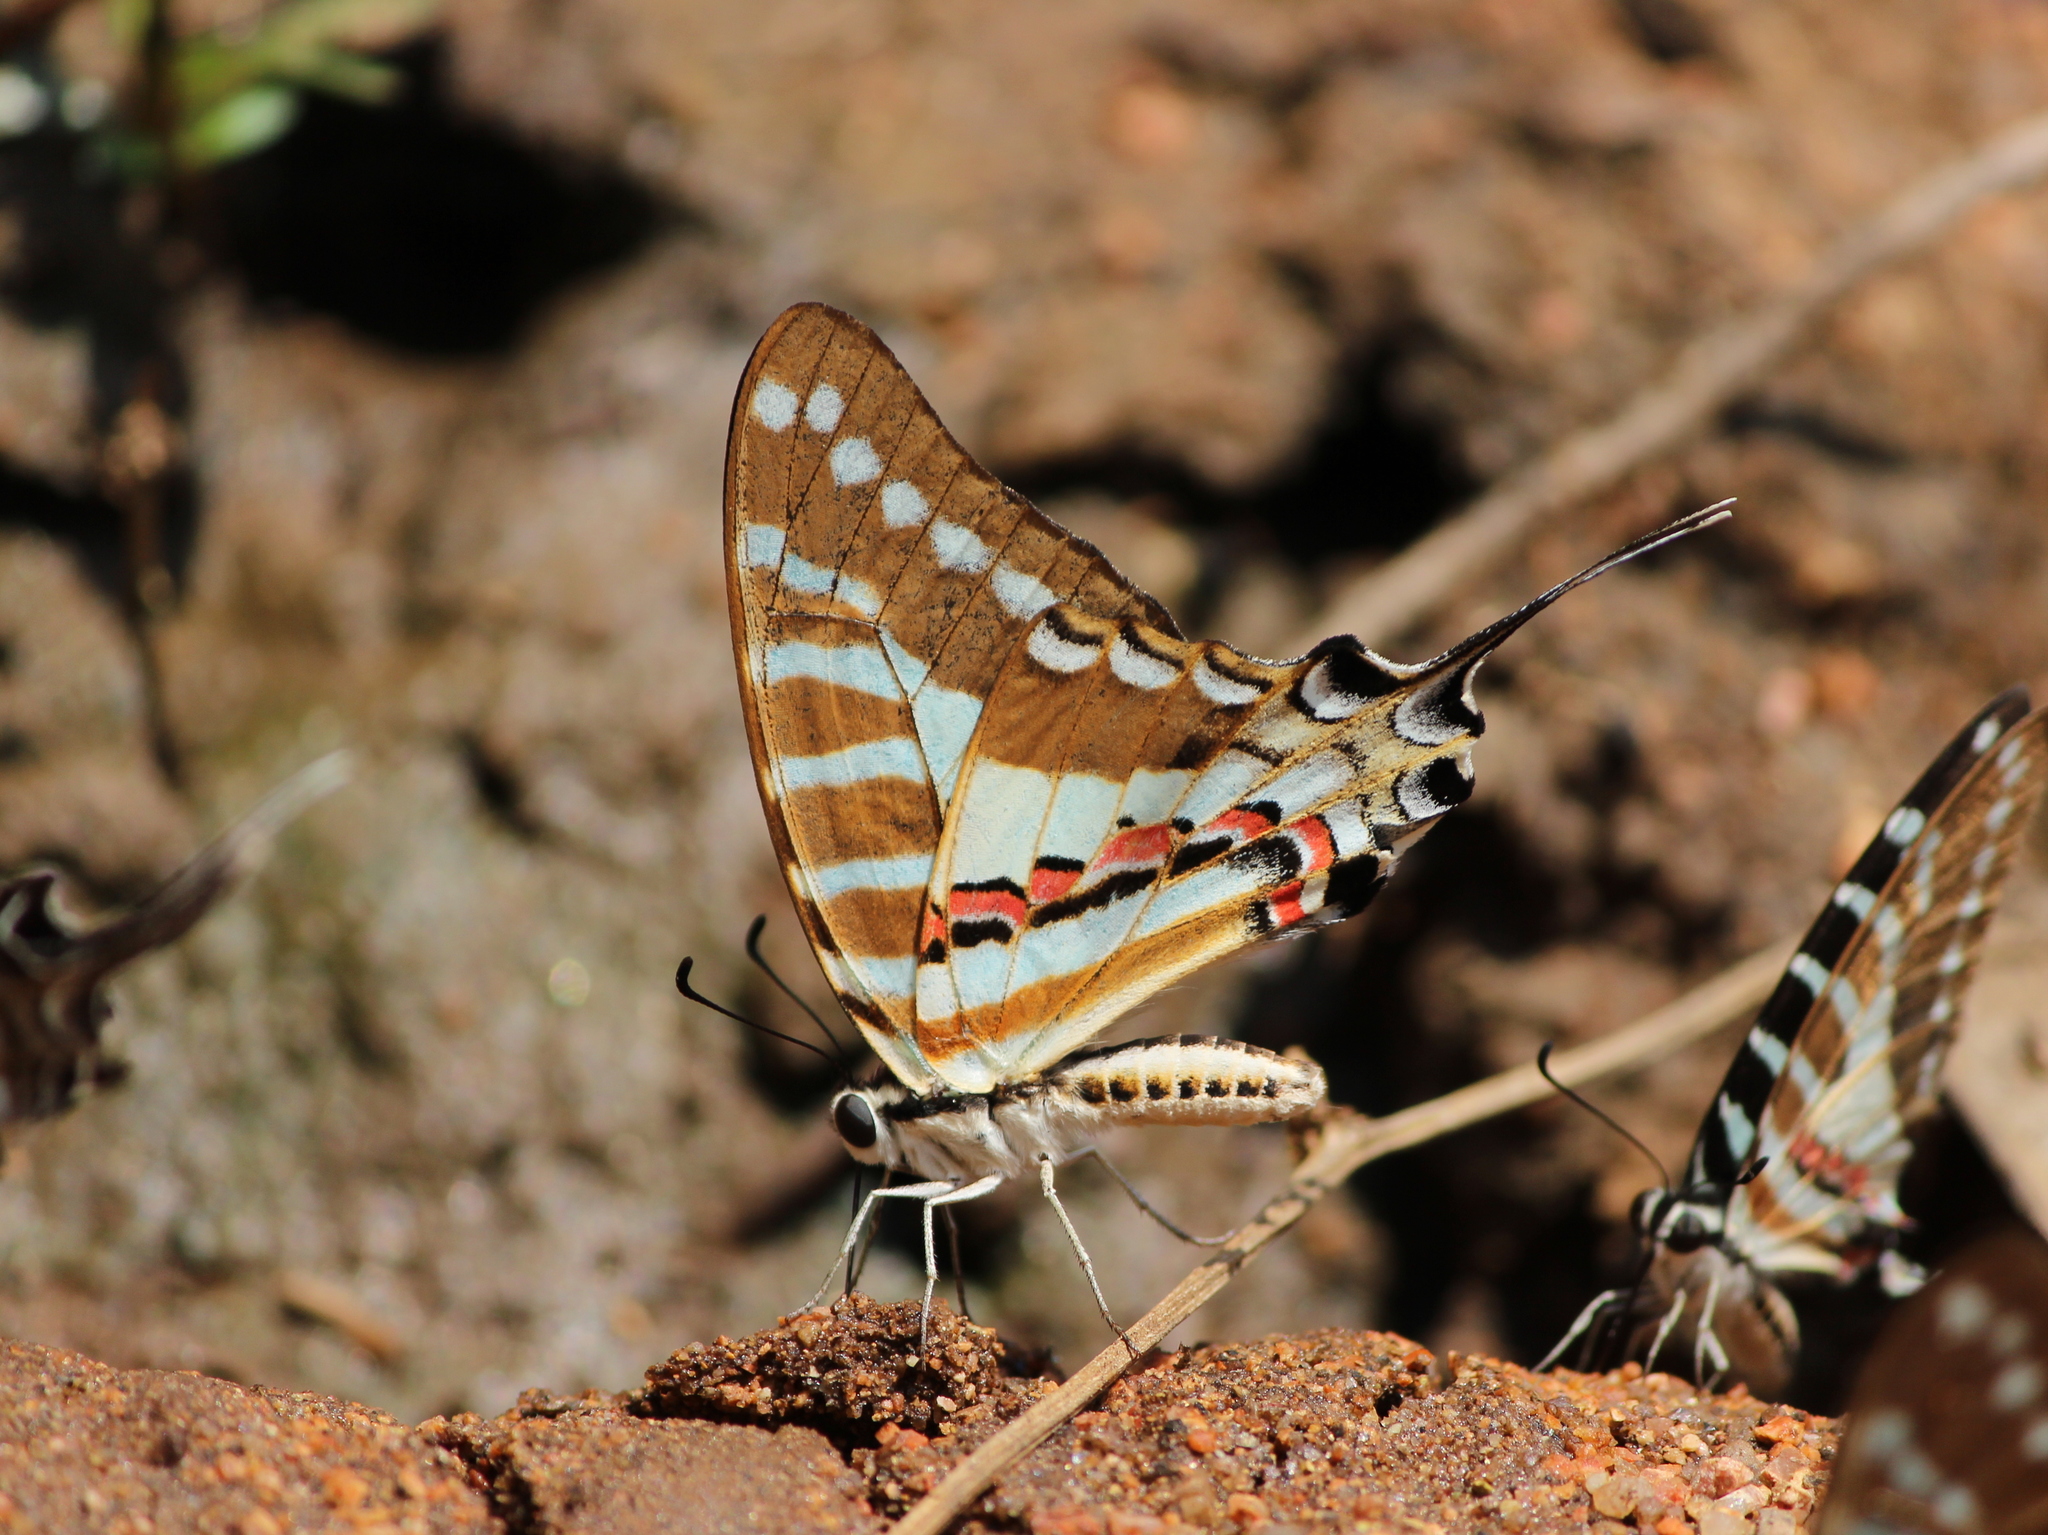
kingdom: Animalia
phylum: Arthropoda
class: Insecta
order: Lepidoptera
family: Papilionidae
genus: Graphium
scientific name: Graphium nomius
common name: Spot swordtail
